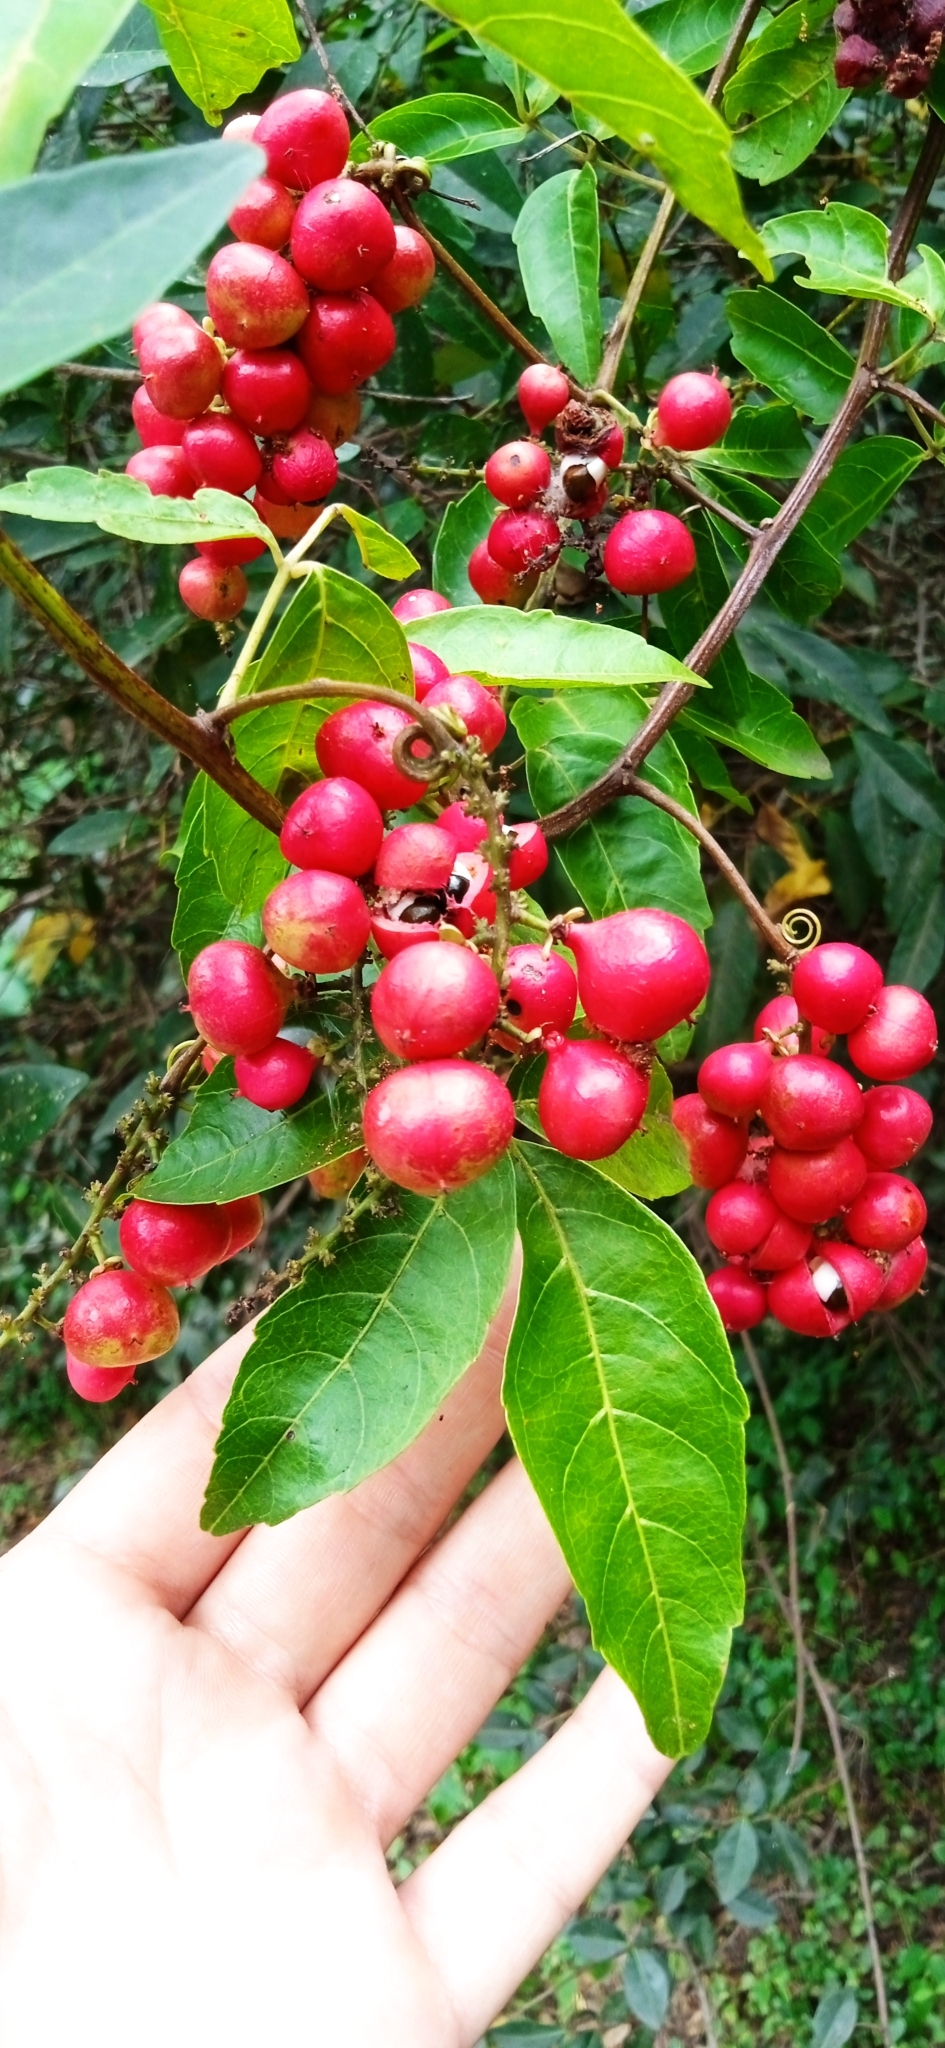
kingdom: Plantae
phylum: Tracheophyta
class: Magnoliopsida
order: Sapindales
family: Sapindaceae
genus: Paullinia
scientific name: Paullinia elegans
